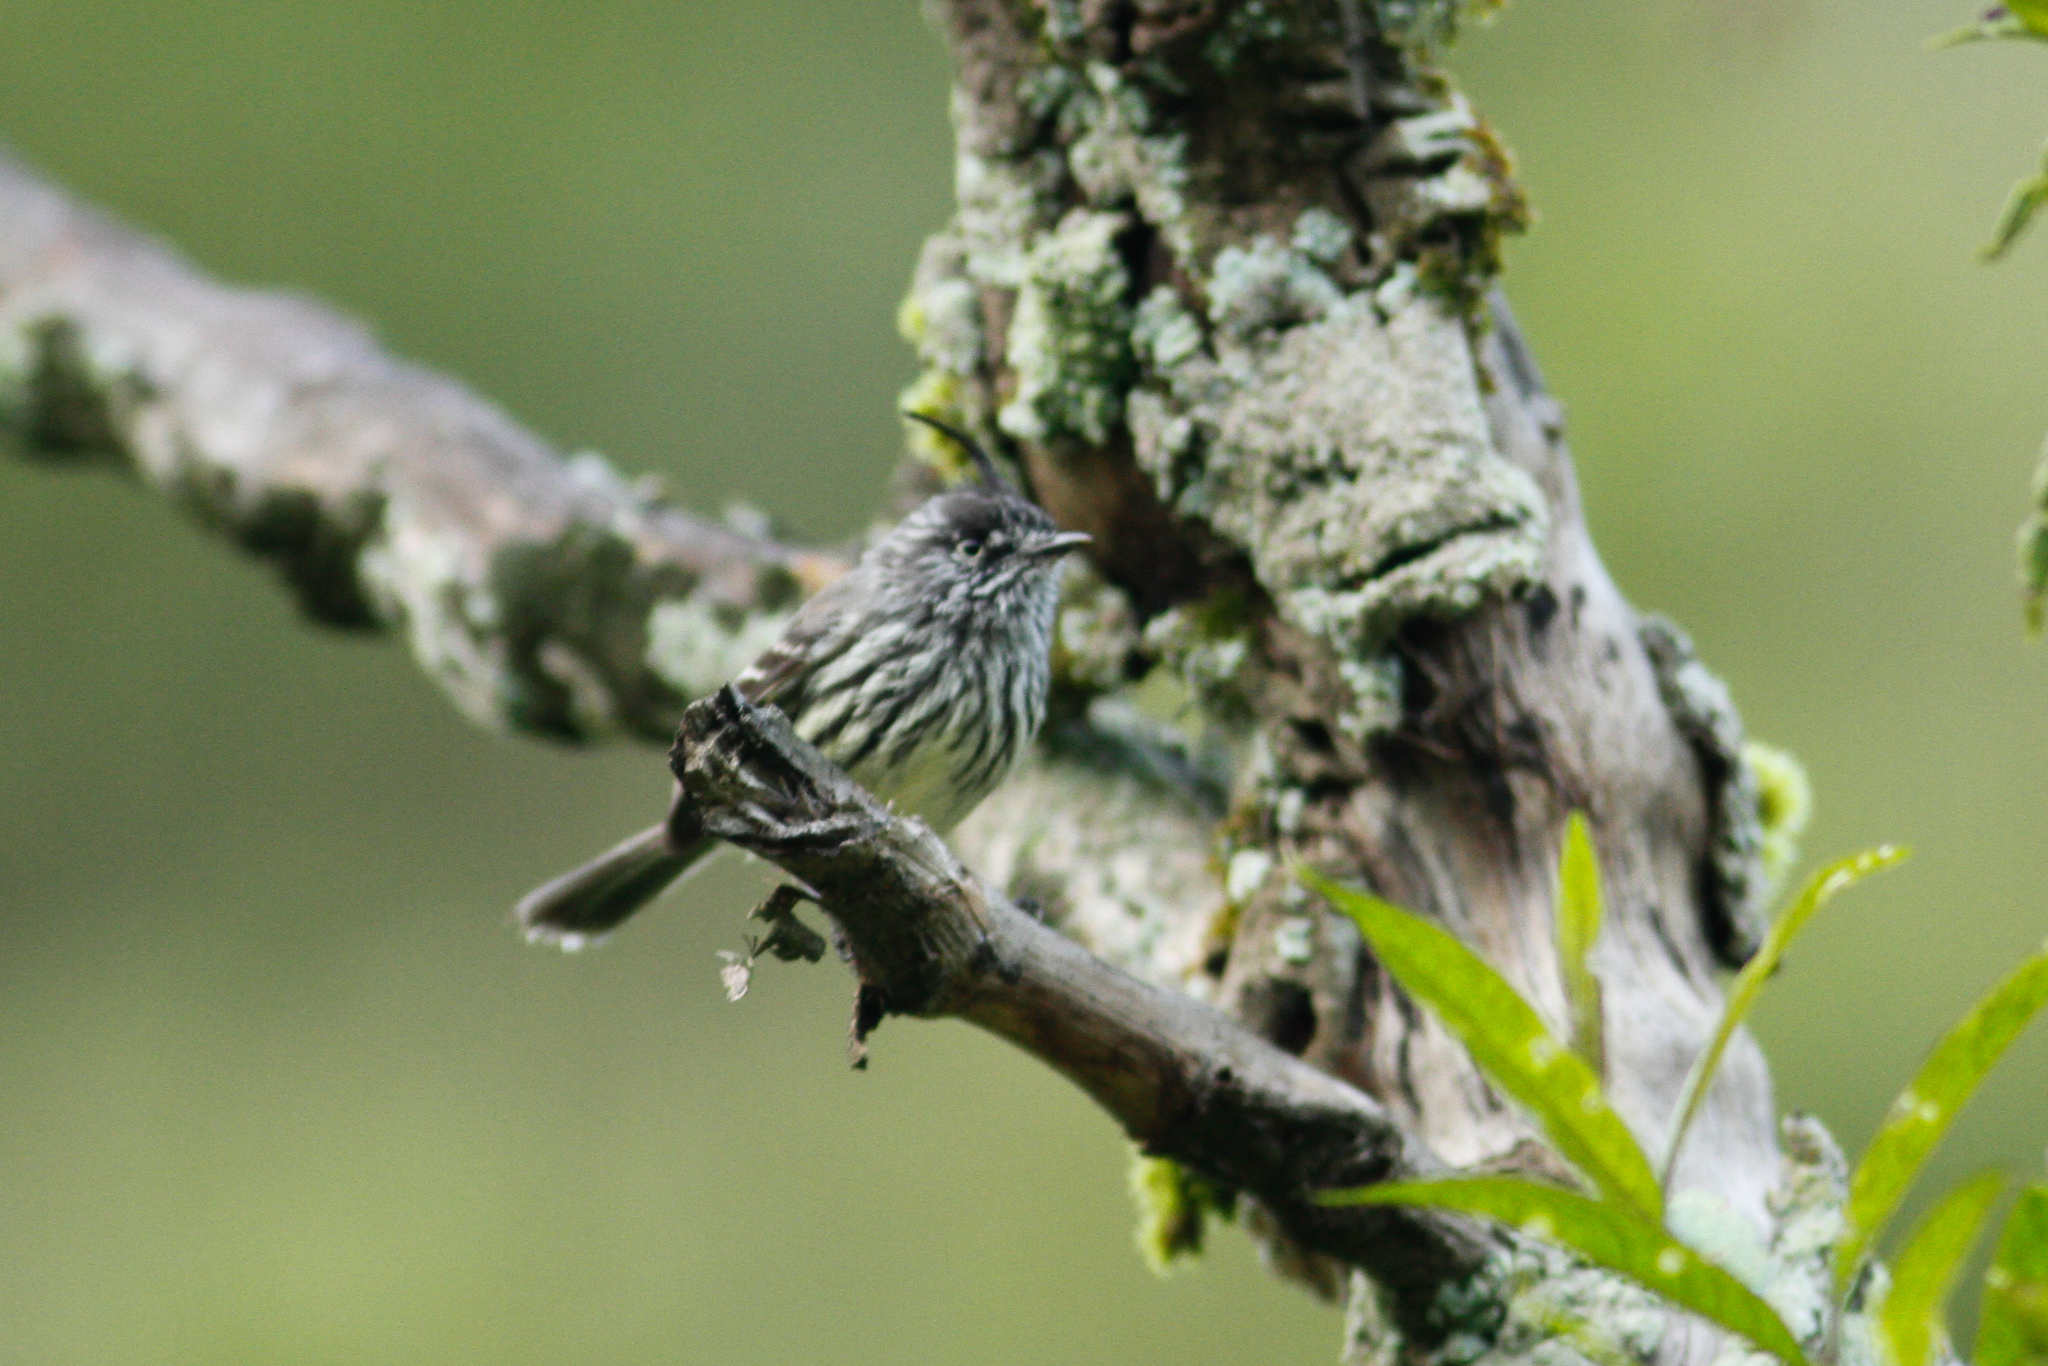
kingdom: Animalia
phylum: Chordata
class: Aves
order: Passeriformes
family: Tyrannidae
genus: Anairetes
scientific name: Anairetes parulus
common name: Tufted tit-tyrant
